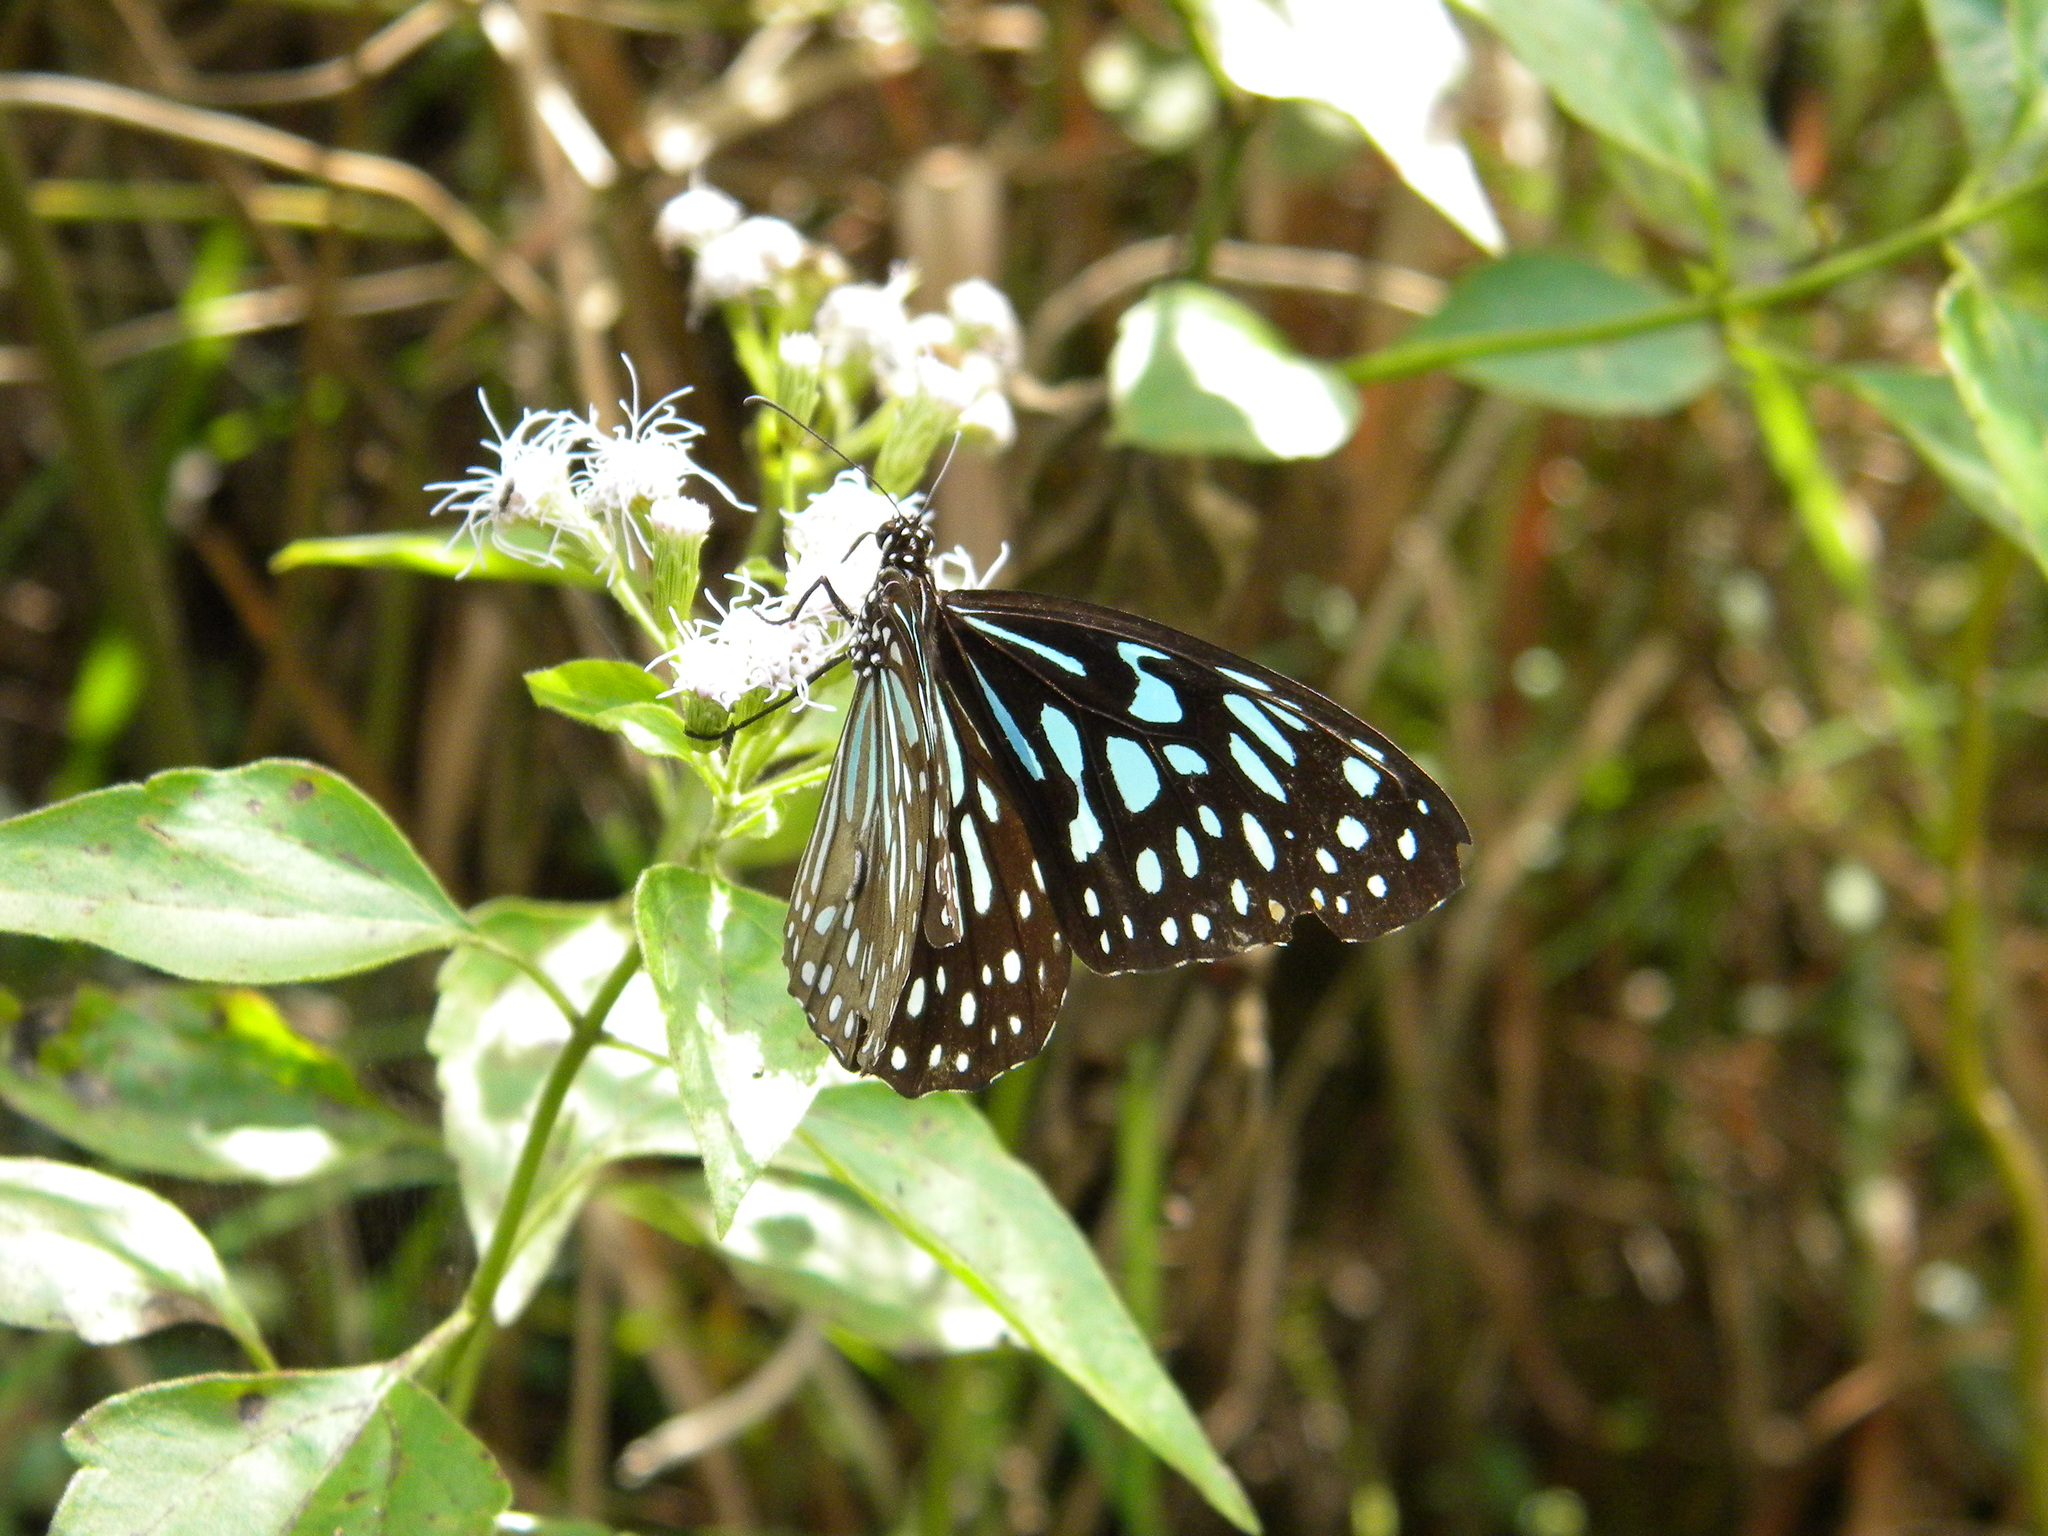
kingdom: Animalia
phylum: Arthropoda
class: Insecta
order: Lepidoptera
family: Nymphalidae
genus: Tirumala
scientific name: Tirumala septentrionis
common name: Dark blue tiger butterfly
